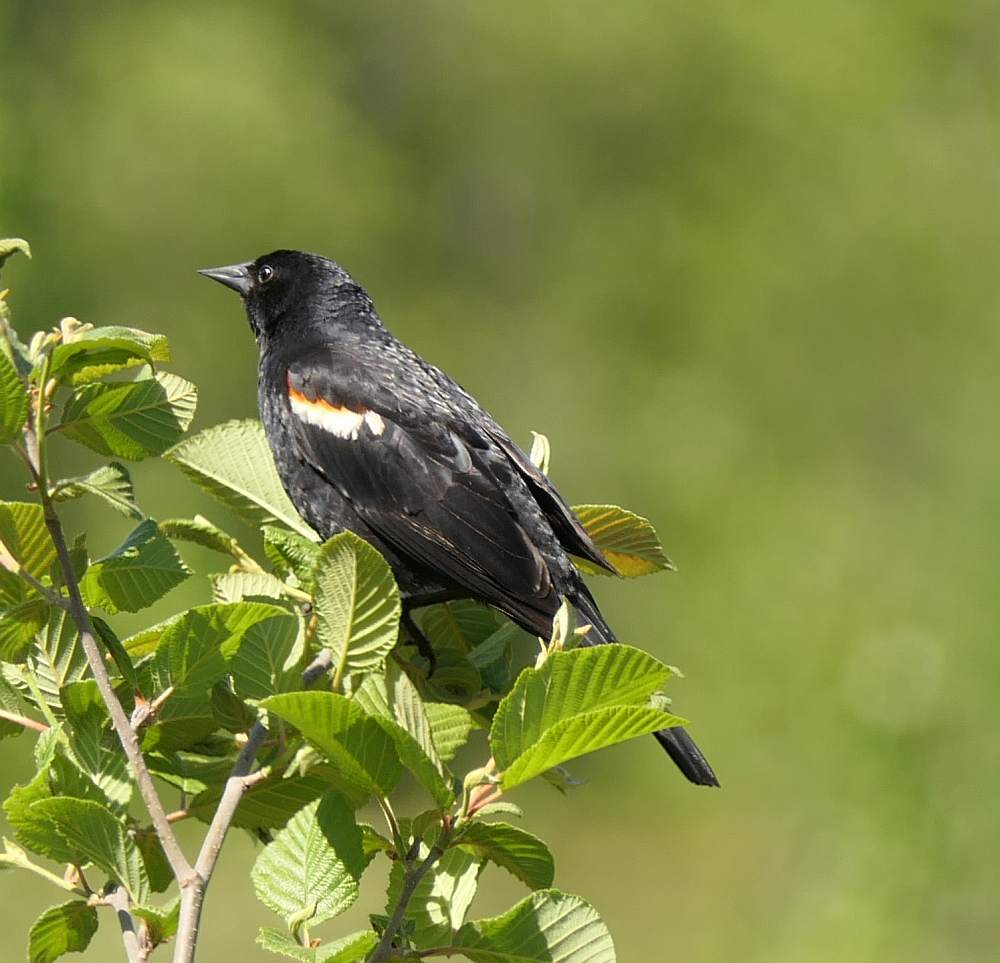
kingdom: Animalia
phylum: Chordata
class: Aves
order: Passeriformes
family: Icteridae
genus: Agelaius
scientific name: Agelaius phoeniceus
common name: Red-winged blackbird
